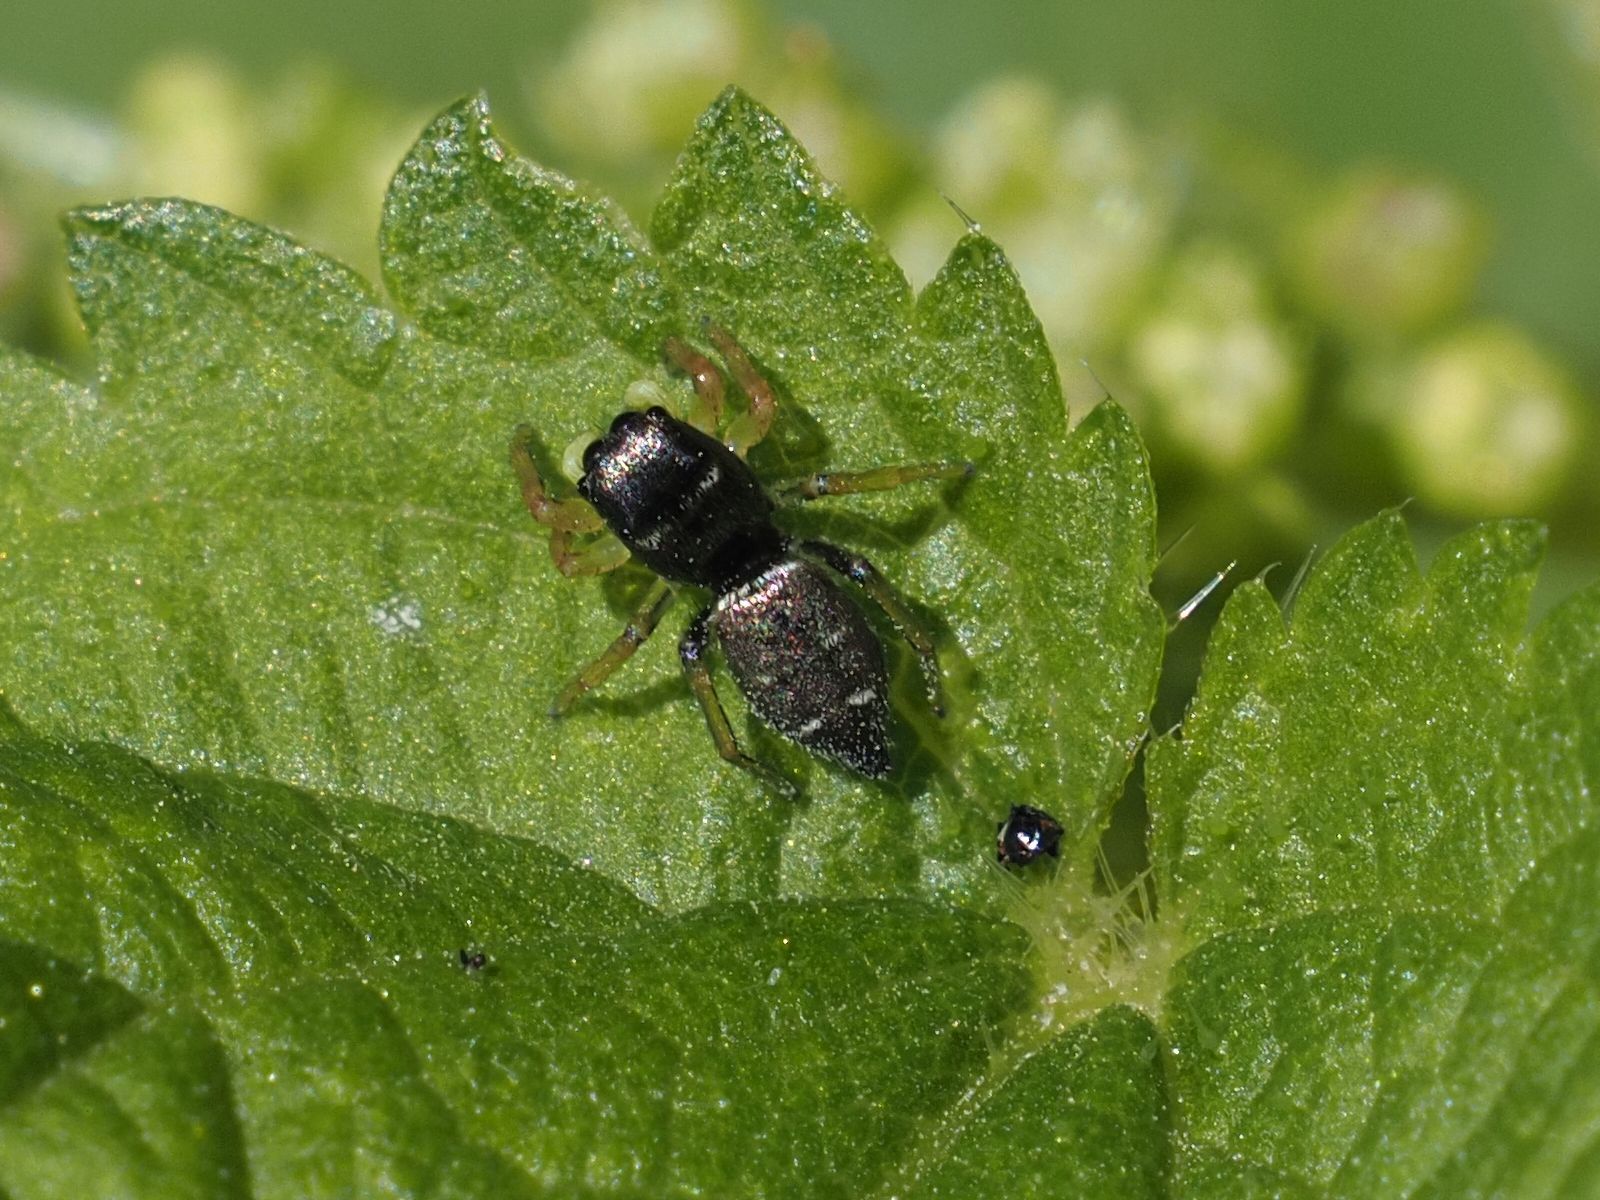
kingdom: Animalia
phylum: Arthropoda
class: Arachnida
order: Araneae
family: Salticidae
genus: Heliophanus
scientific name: Heliophanus cupreus
